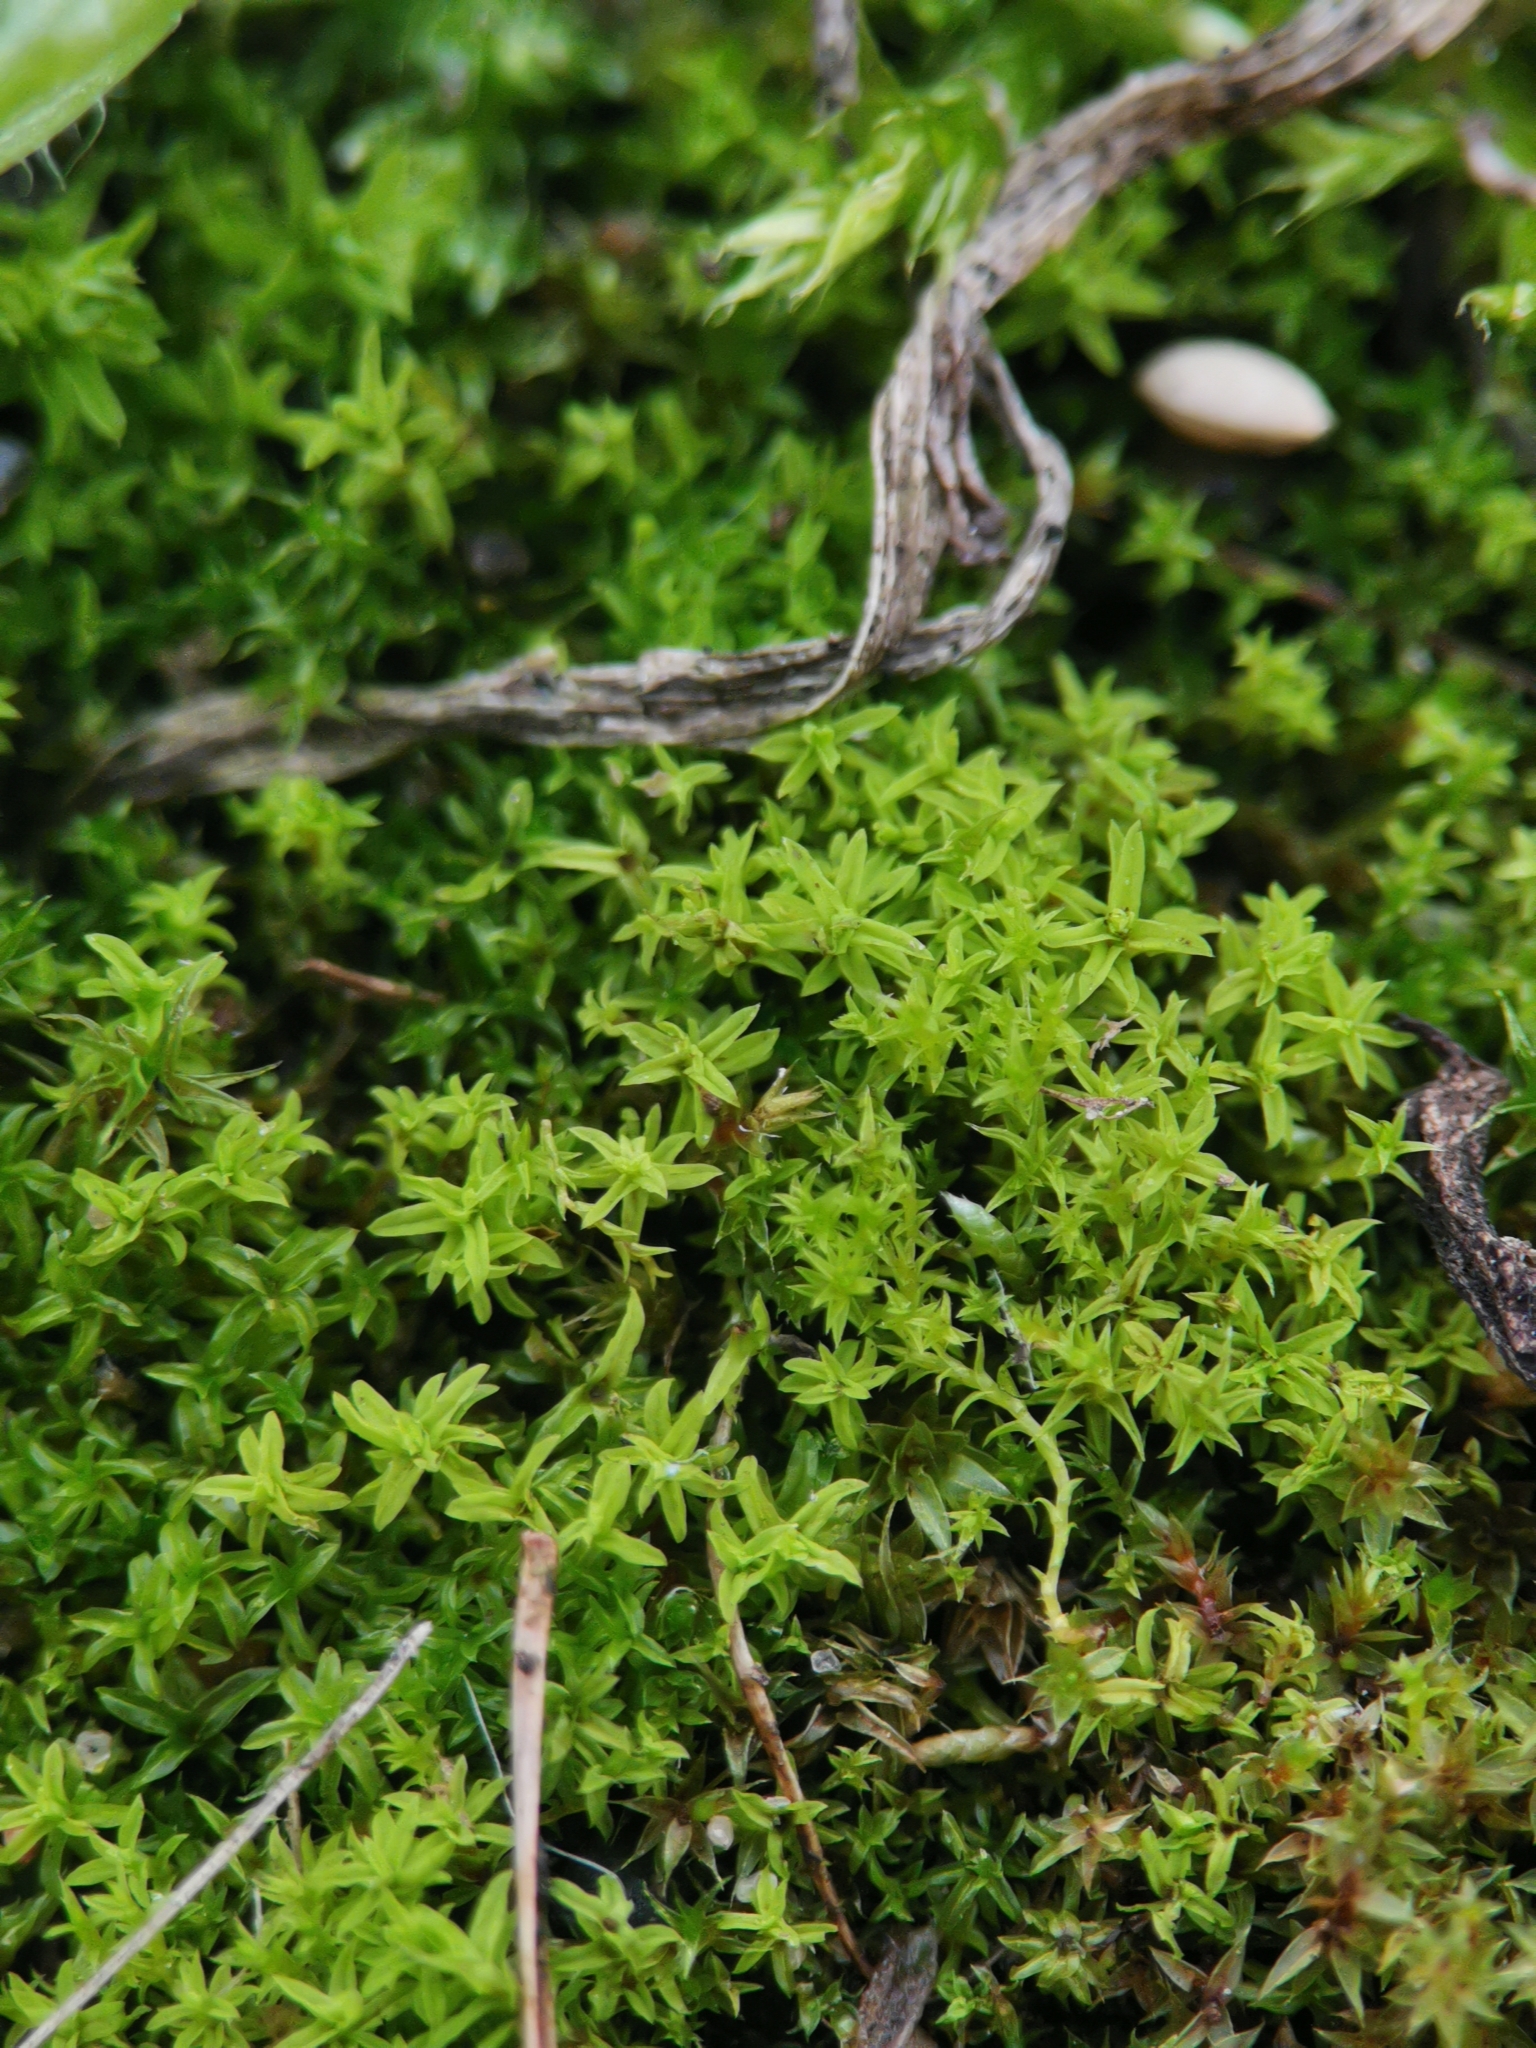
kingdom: Plantae
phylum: Bryophyta
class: Bryopsida
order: Pottiales
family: Pottiaceae
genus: Barbula
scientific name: Barbula unguiculata
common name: Prickly beard moss
